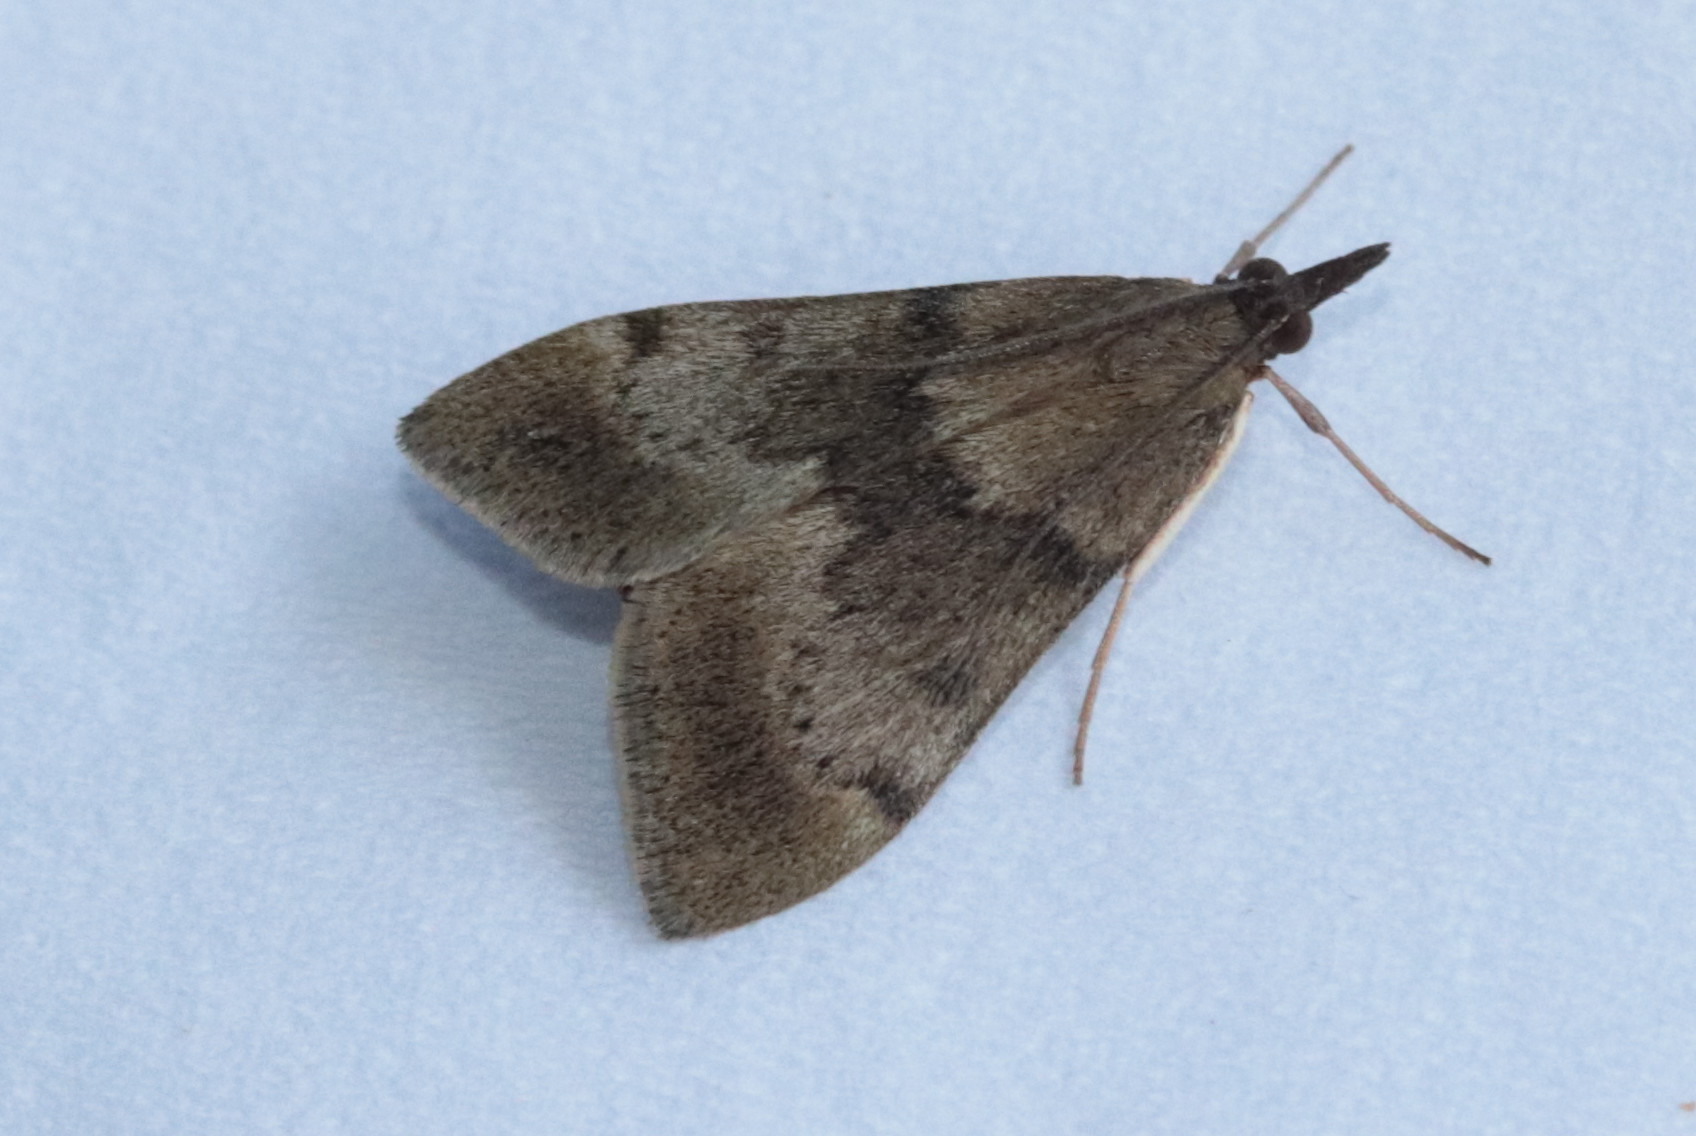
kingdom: Animalia
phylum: Arthropoda
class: Insecta
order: Lepidoptera
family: Crambidae
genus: Uresiphita
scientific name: Uresiphita
